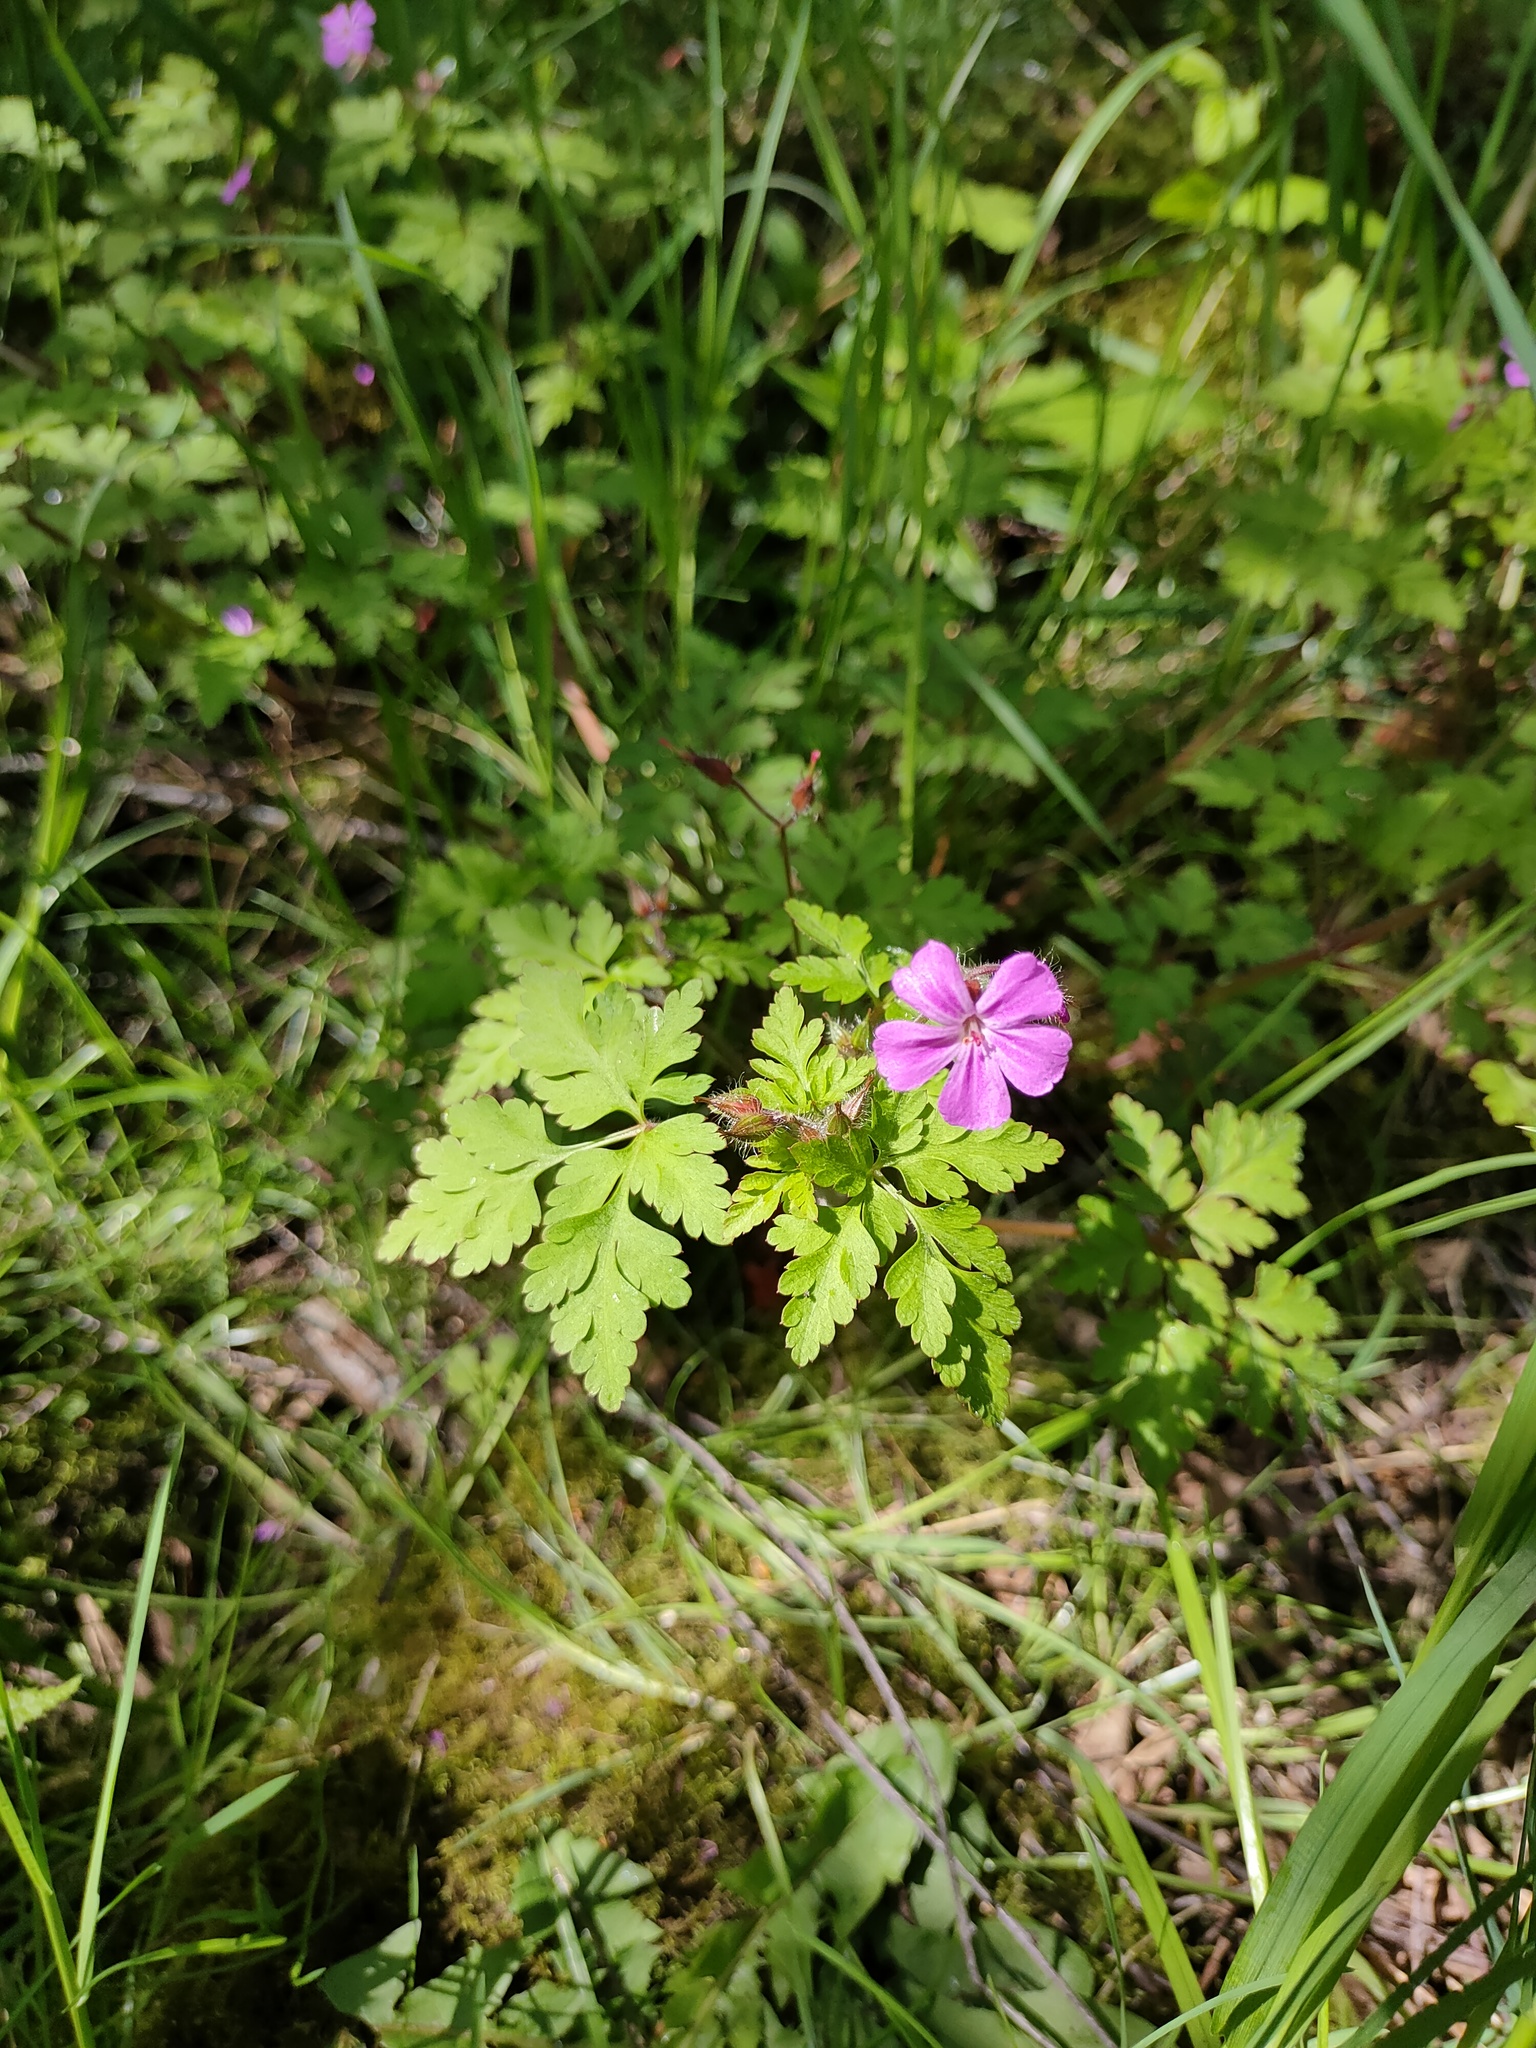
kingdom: Plantae
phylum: Tracheophyta
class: Magnoliopsida
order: Geraniales
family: Geraniaceae
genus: Geranium
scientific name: Geranium robertianum
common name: Herb-robert
